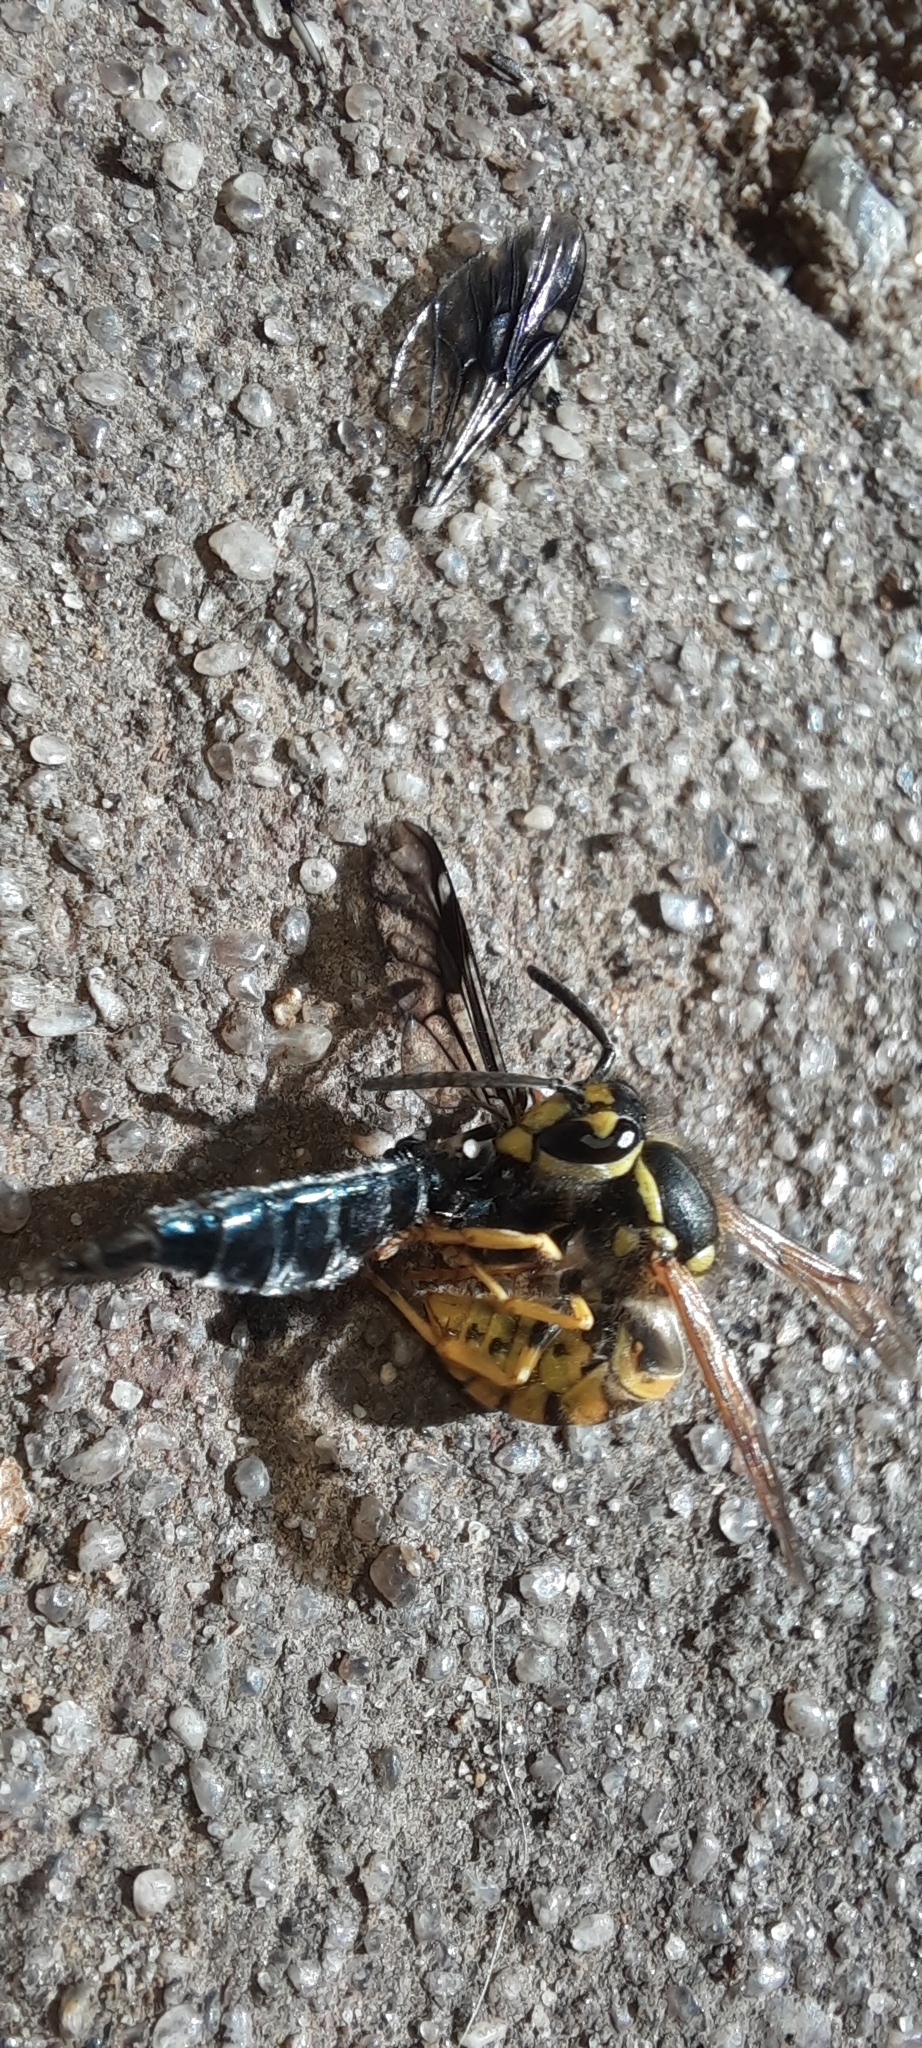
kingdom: Animalia
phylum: Arthropoda
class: Insecta
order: Diptera
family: Stratiomyidae
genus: Exaireta
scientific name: Exaireta spinigera
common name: Blue soldier fly
